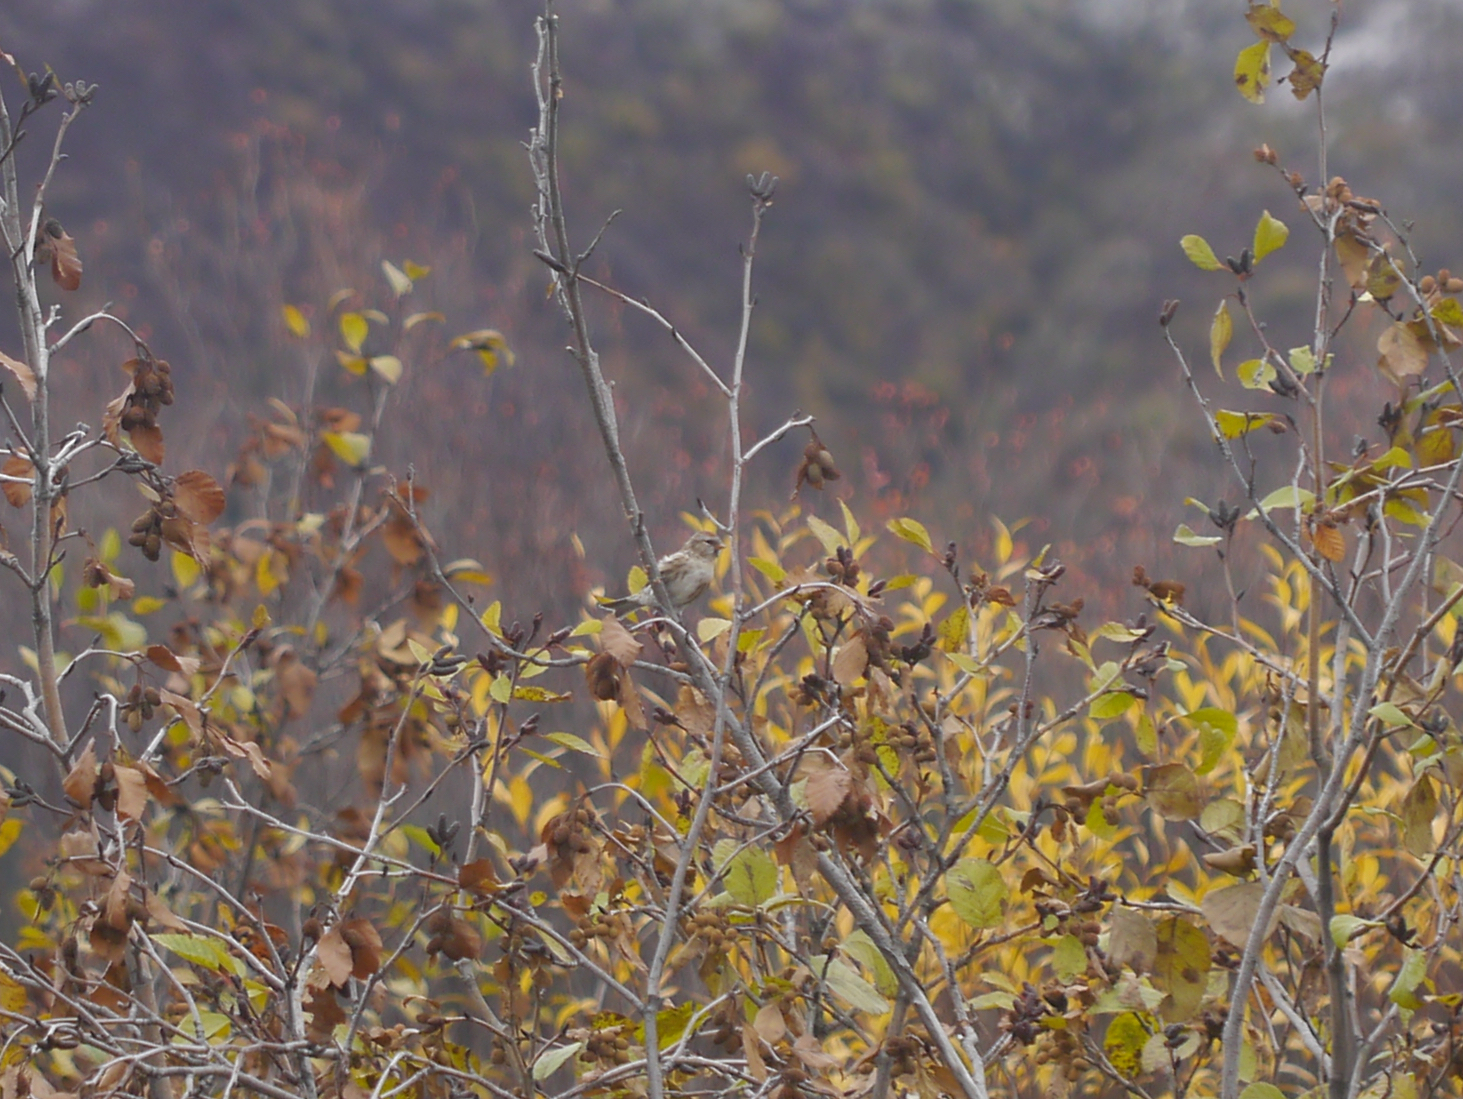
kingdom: Animalia
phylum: Chordata
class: Aves
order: Passeriformes
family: Fringillidae
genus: Acanthis
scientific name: Acanthis flammea
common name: Common redpoll
